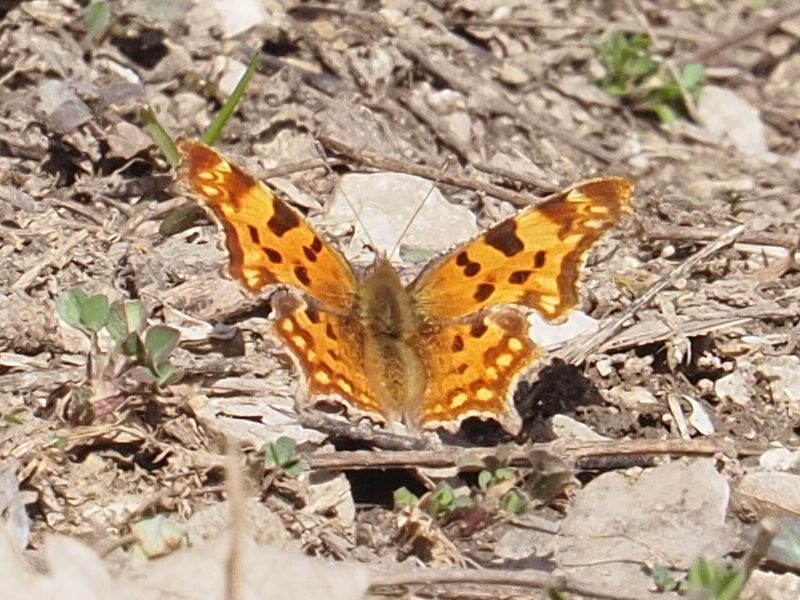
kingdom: Animalia
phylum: Arthropoda
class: Insecta
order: Lepidoptera
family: Nymphalidae
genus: Polygonia
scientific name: Polygonia c-album
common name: Comma
